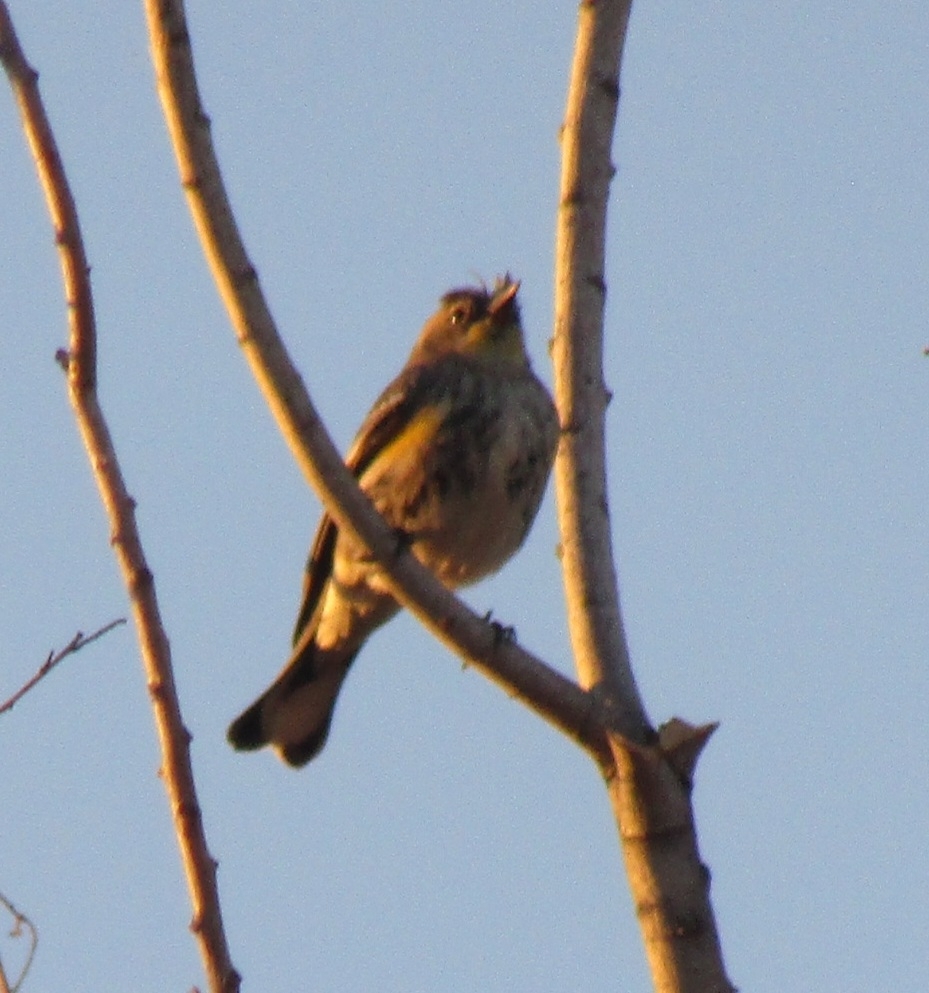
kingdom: Animalia
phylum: Chordata
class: Aves
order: Passeriformes
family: Parulidae
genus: Setophaga
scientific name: Setophaga coronata
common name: Myrtle warbler
